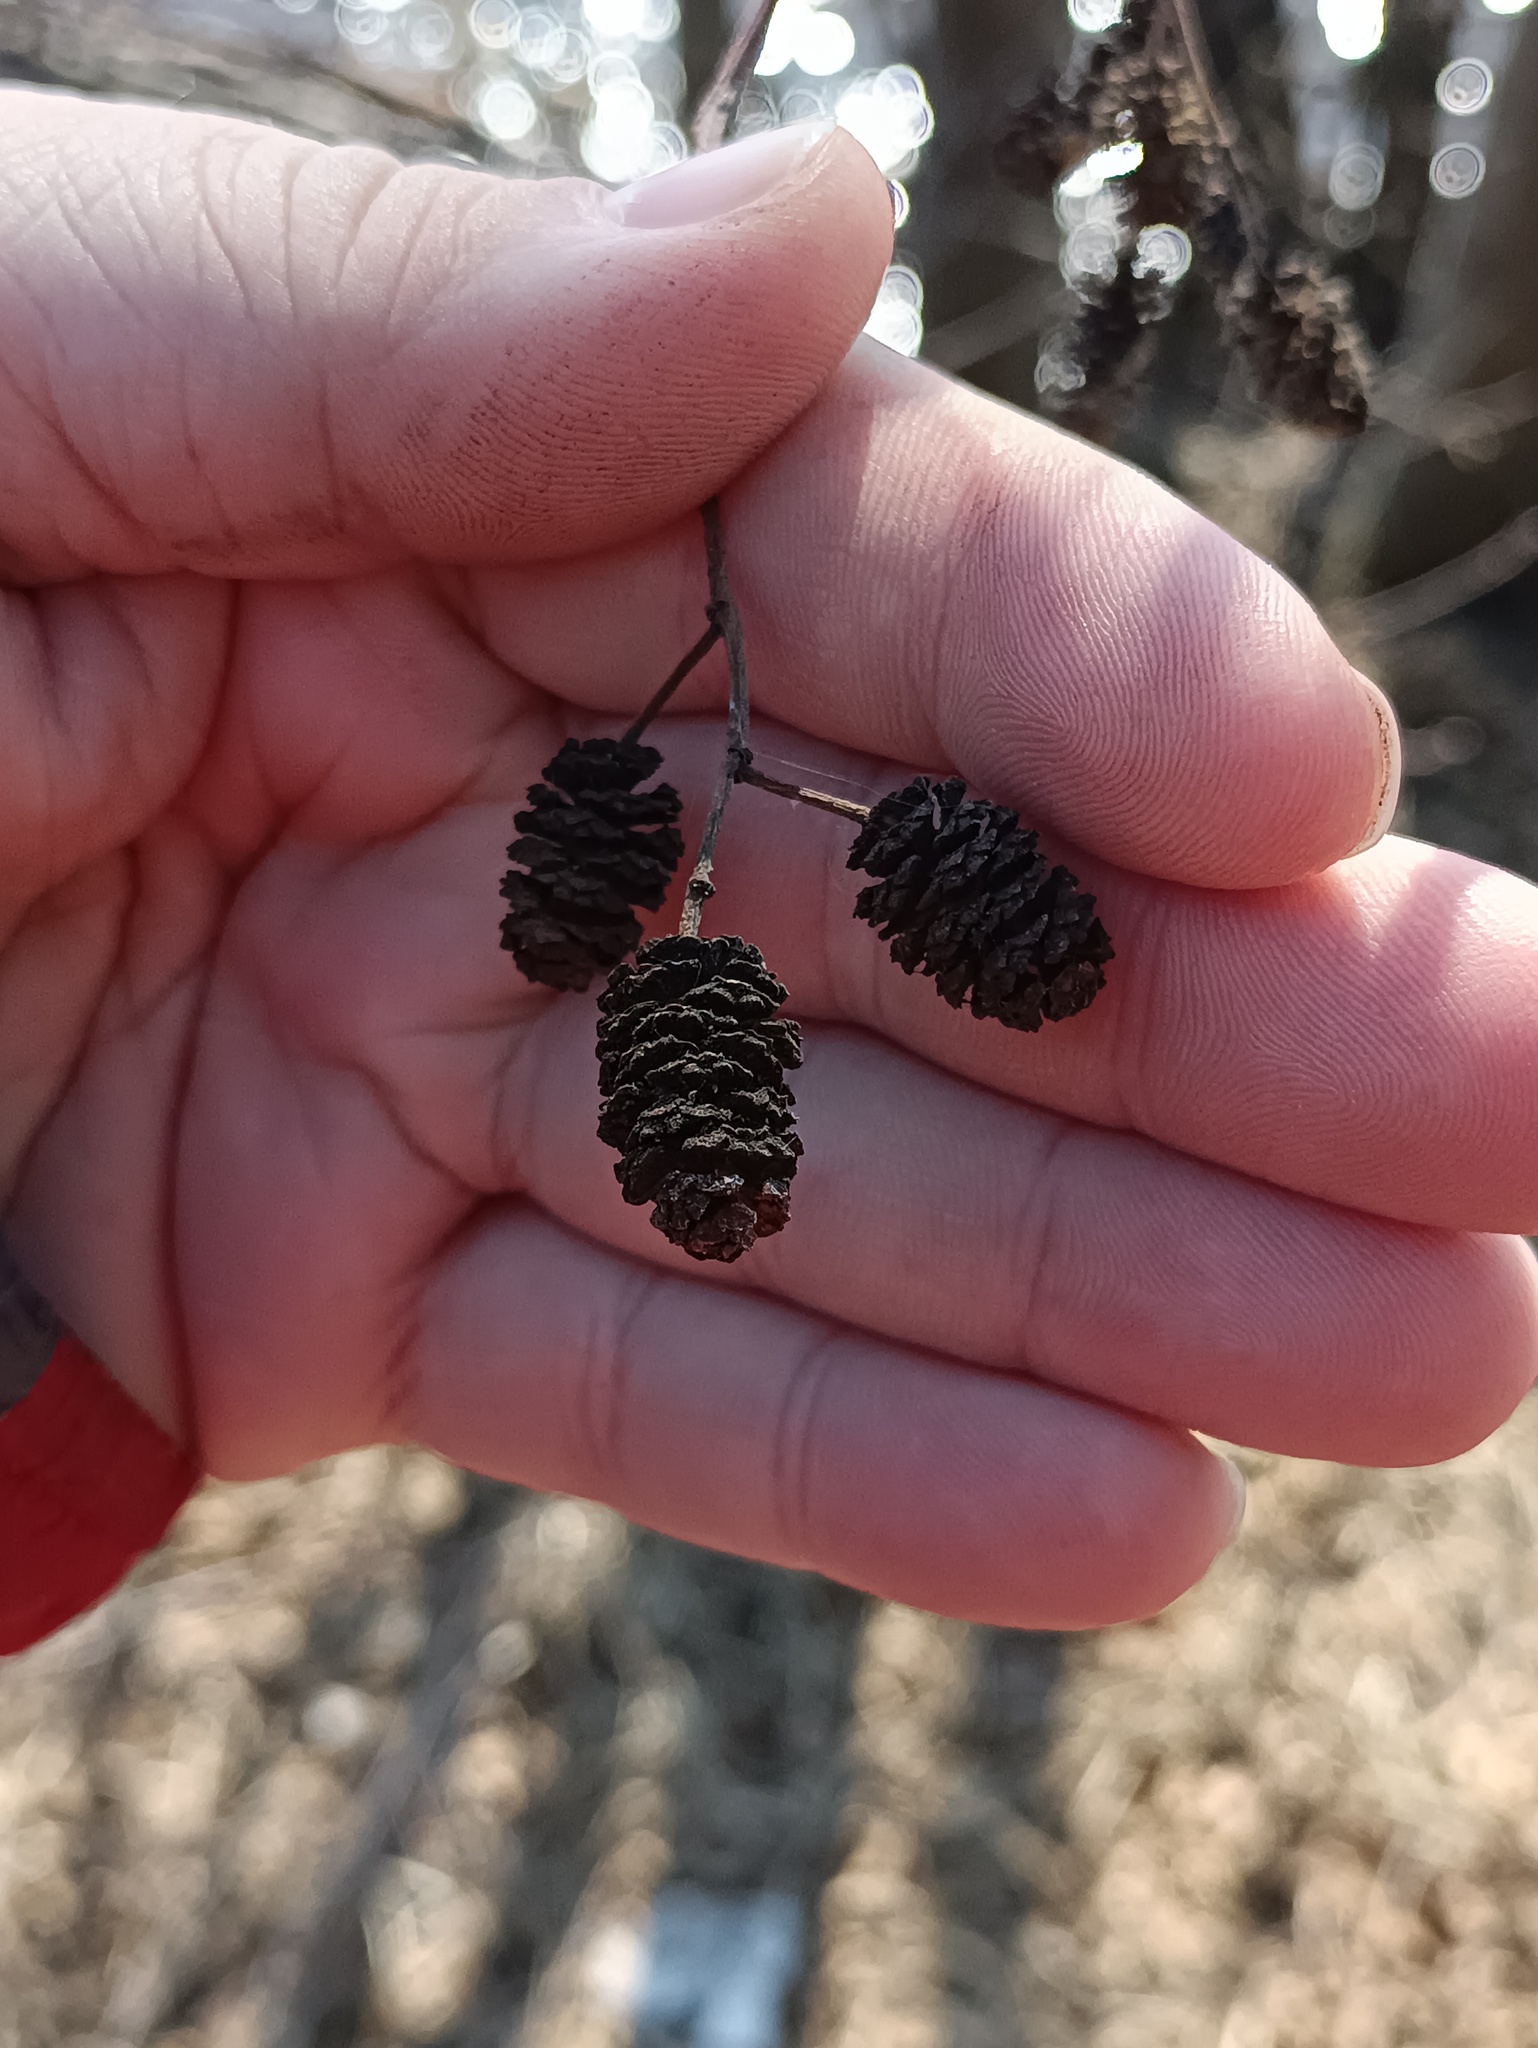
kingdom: Plantae
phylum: Tracheophyta
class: Magnoliopsida
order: Fagales
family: Betulaceae
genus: Alnus
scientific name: Alnus glutinosa
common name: Black alder
